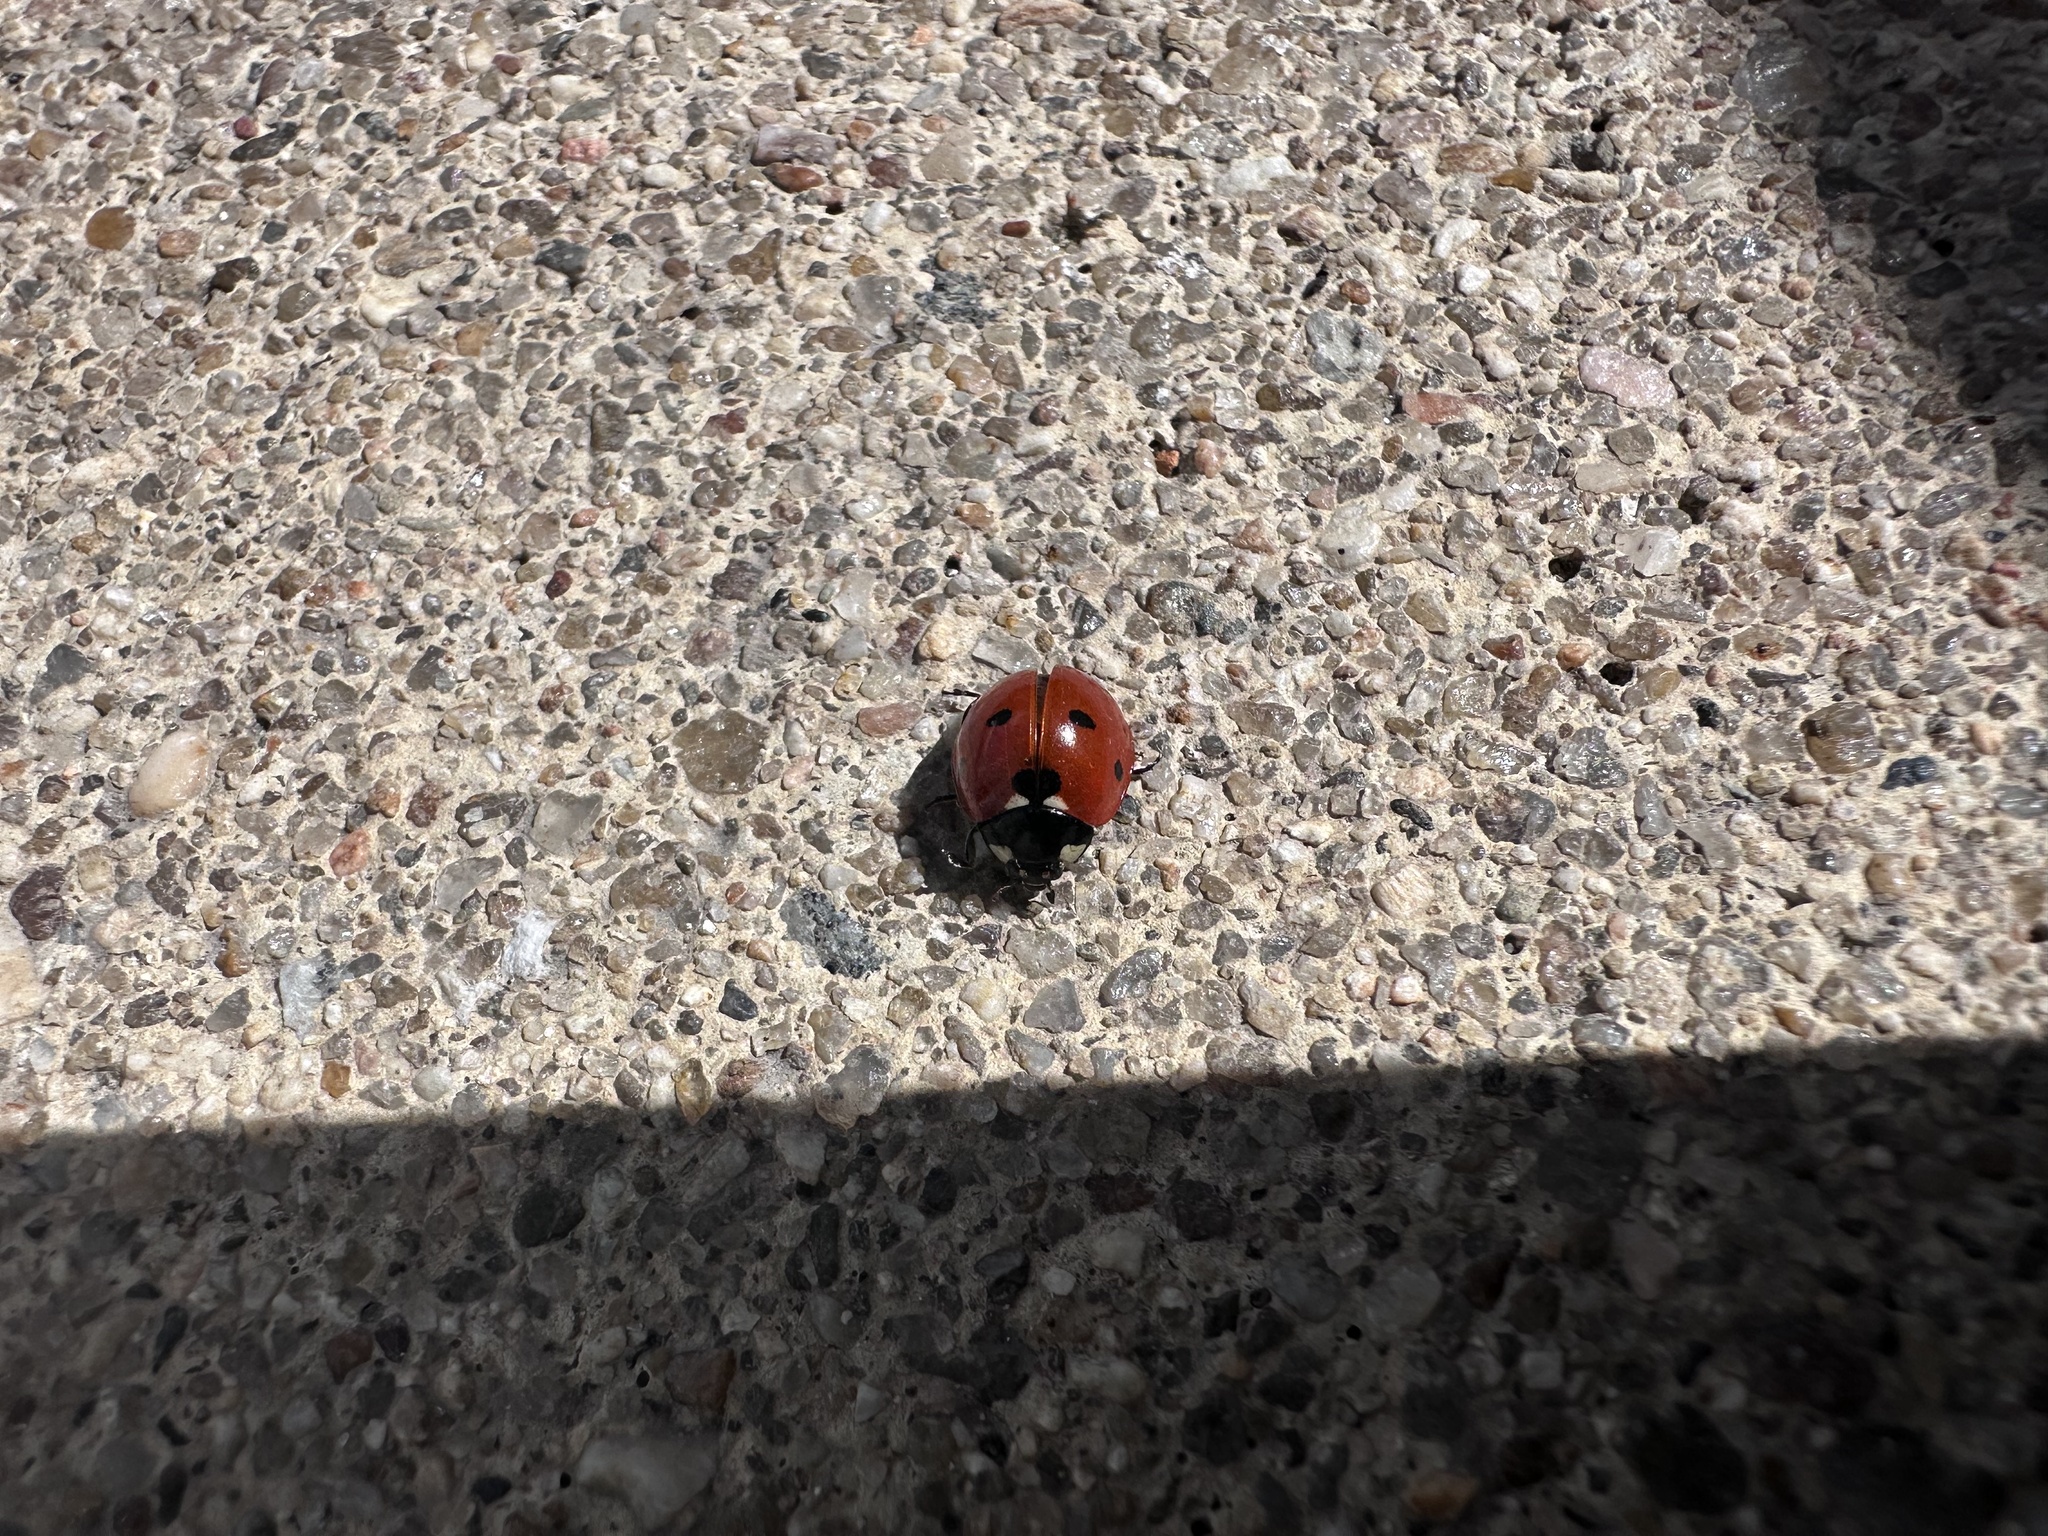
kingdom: Animalia
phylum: Arthropoda
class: Insecta
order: Coleoptera
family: Coccinellidae
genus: Coccinella
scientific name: Coccinella septempunctata
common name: Sevenspotted lady beetle
